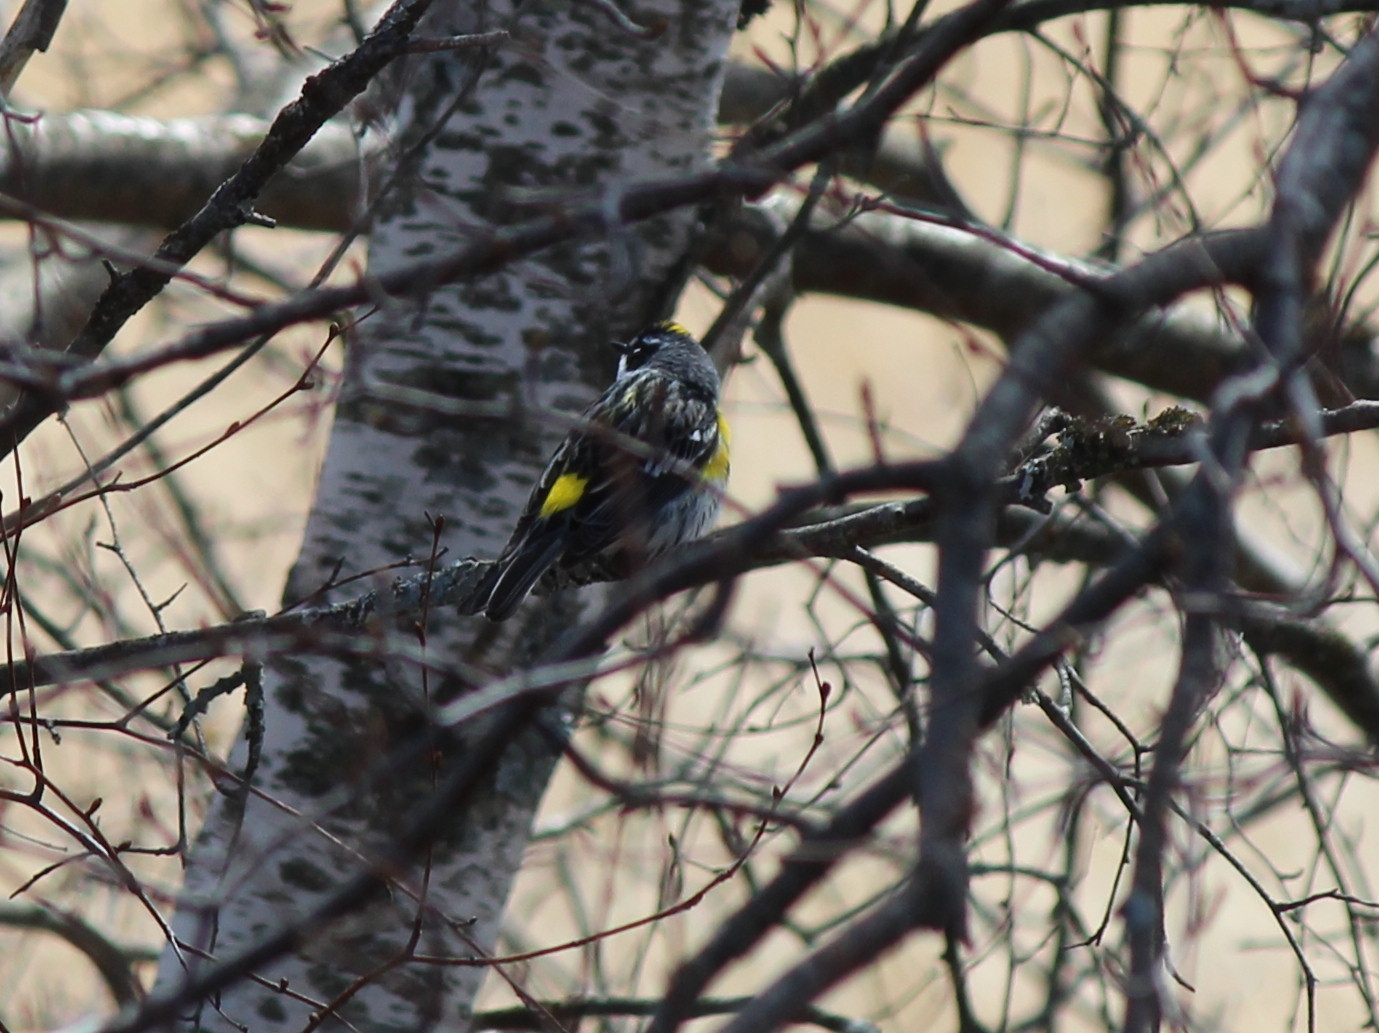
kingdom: Animalia
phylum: Chordata
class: Aves
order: Passeriformes
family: Parulidae
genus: Setophaga
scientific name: Setophaga coronata
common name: Myrtle warbler
